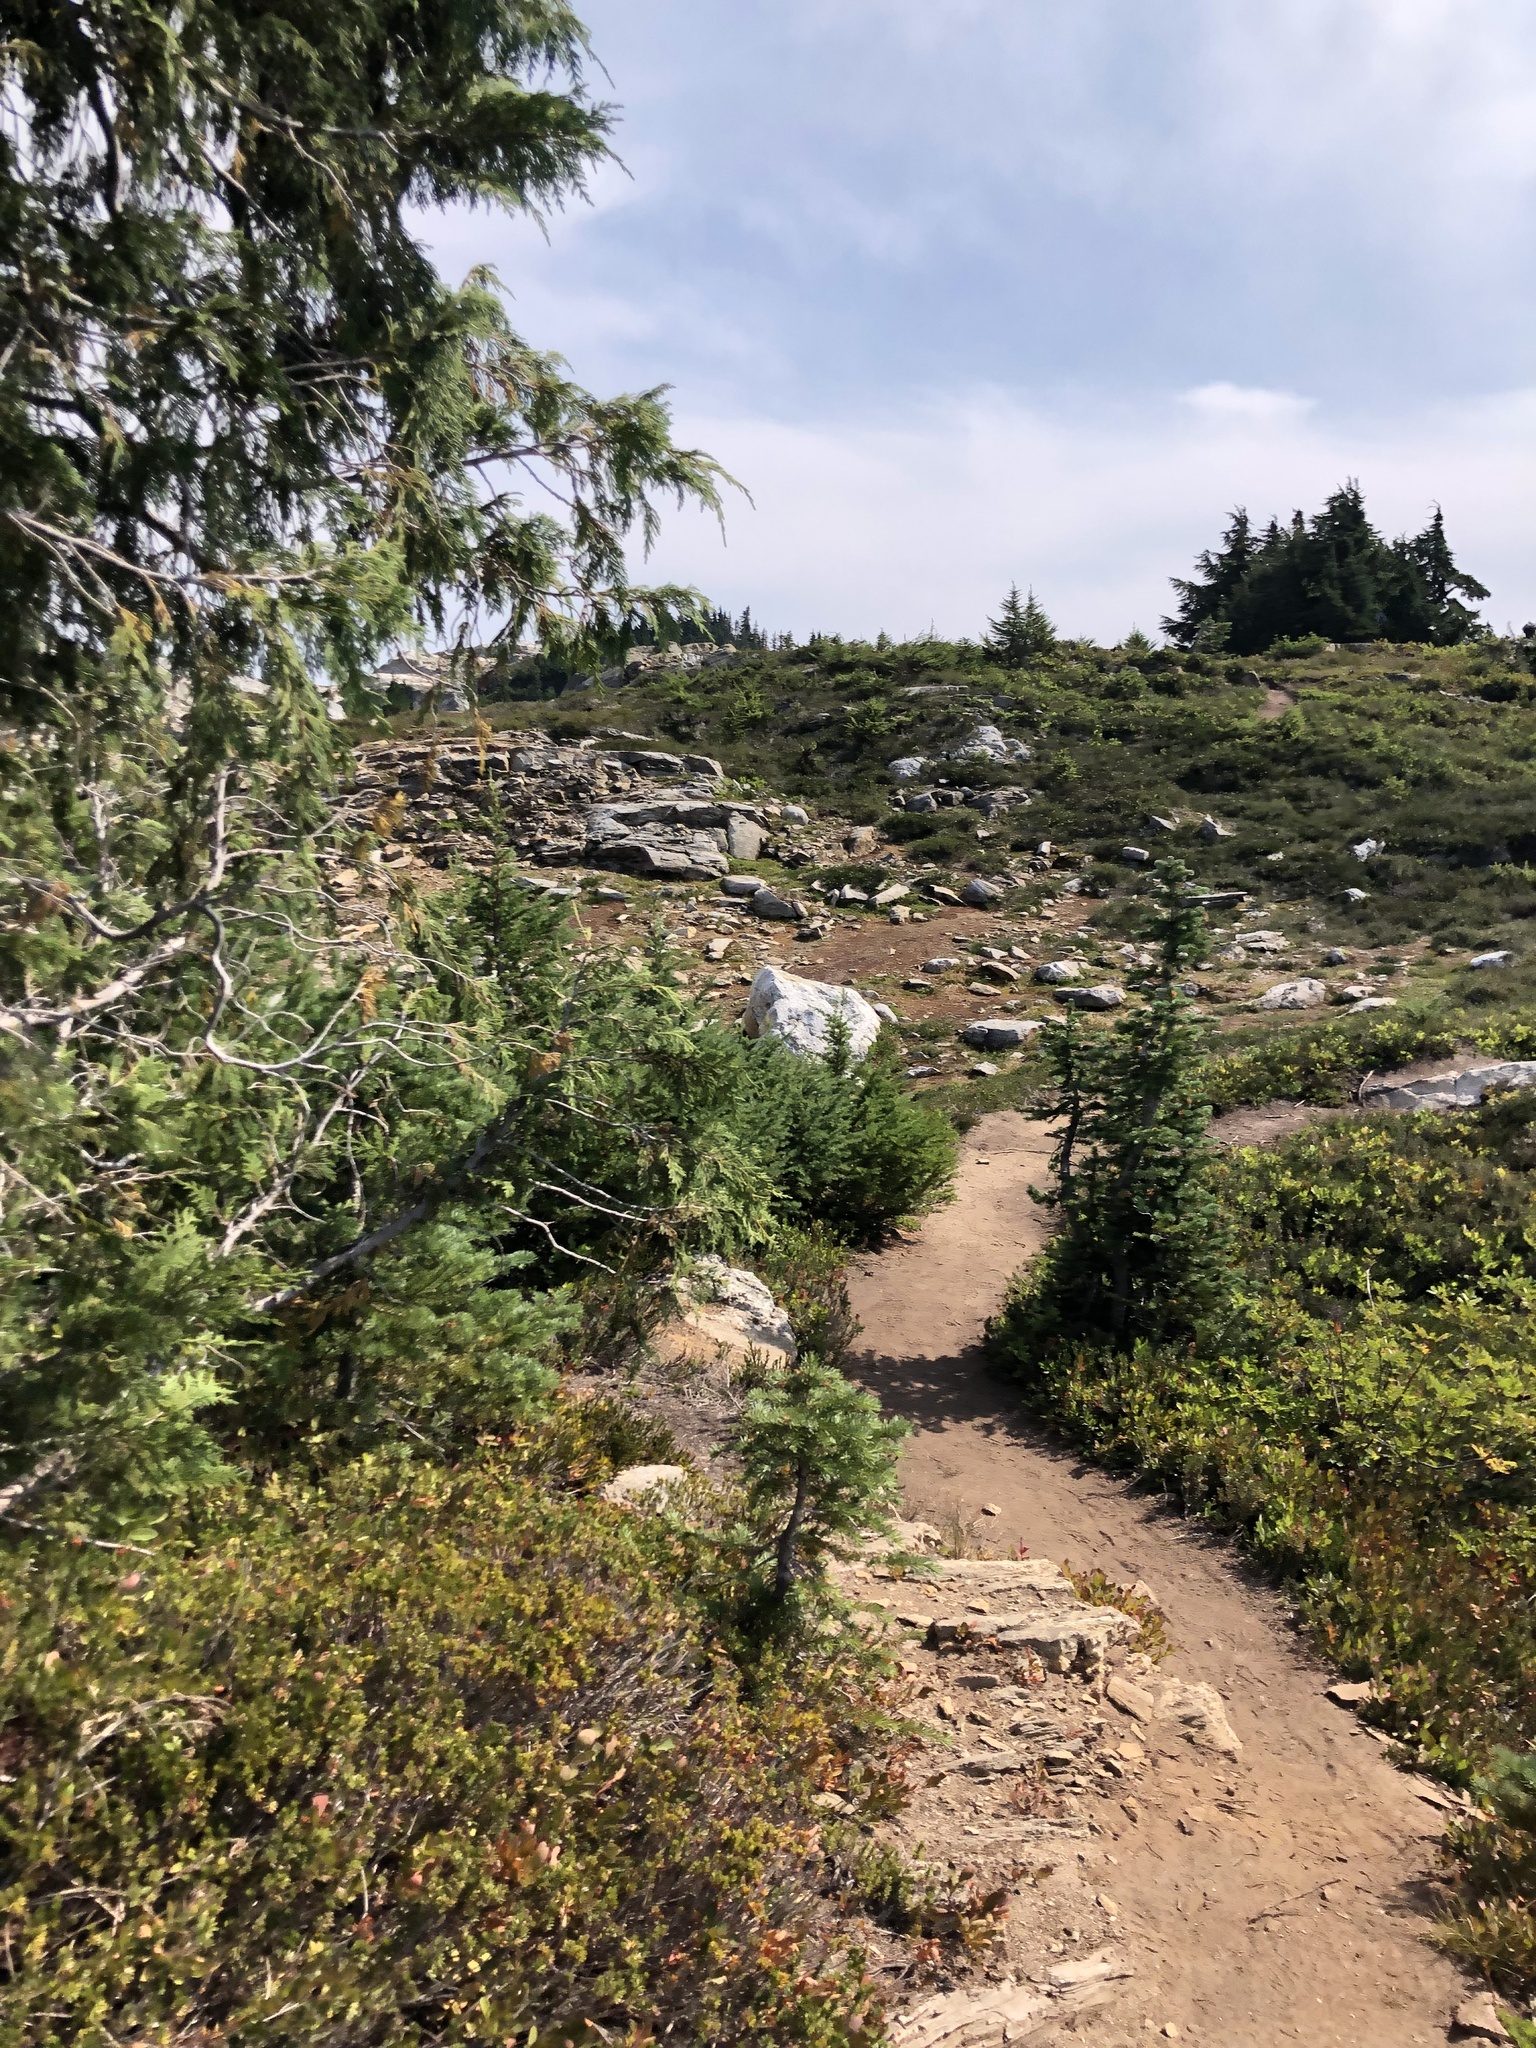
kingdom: Plantae
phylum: Tracheophyta
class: Pinopsida
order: Pinales
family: Cupressaceae
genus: Xanthocyparis
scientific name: Xanthocyparis nootkatensis
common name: Nootka cypress
